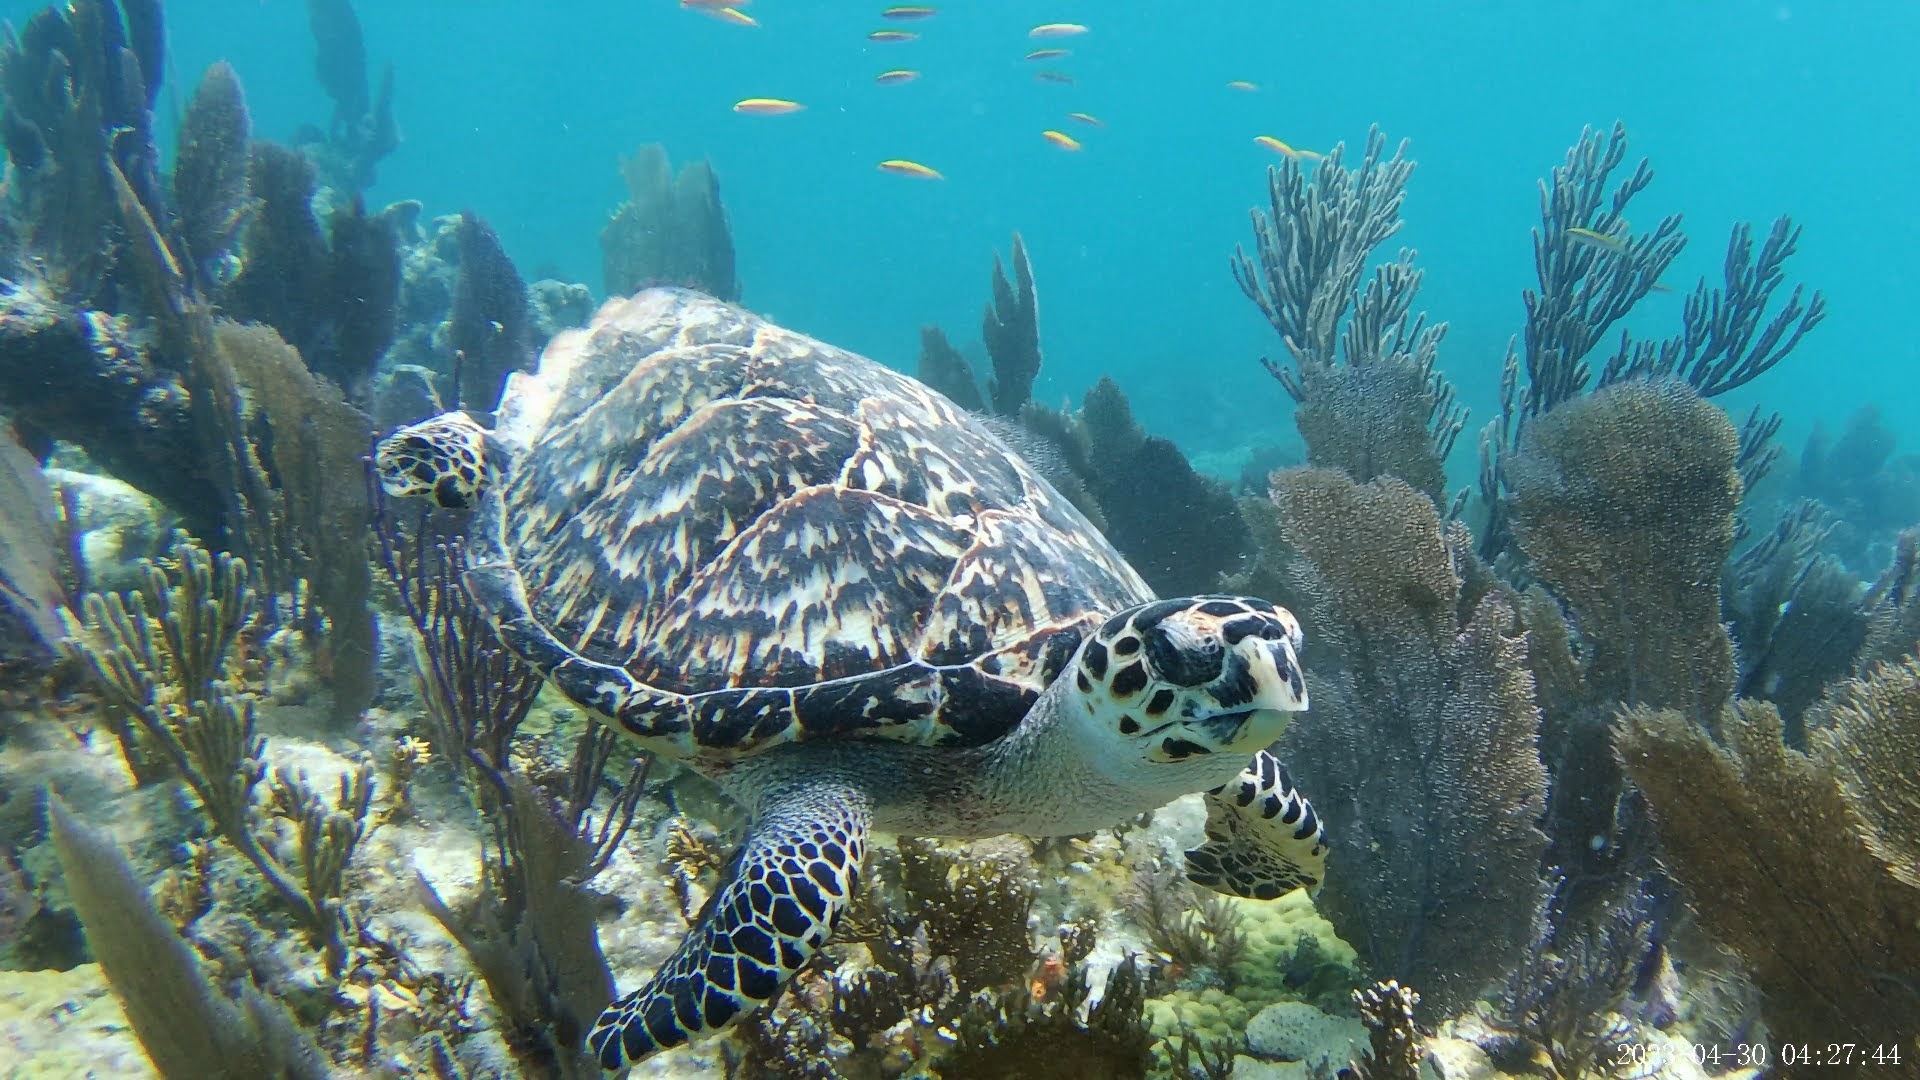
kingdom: Animalia
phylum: Chordata
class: Testudines
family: Cheloniidae
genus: Eretmochelys
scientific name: Eretmochelys imbricata
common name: Hawksbill turtle
